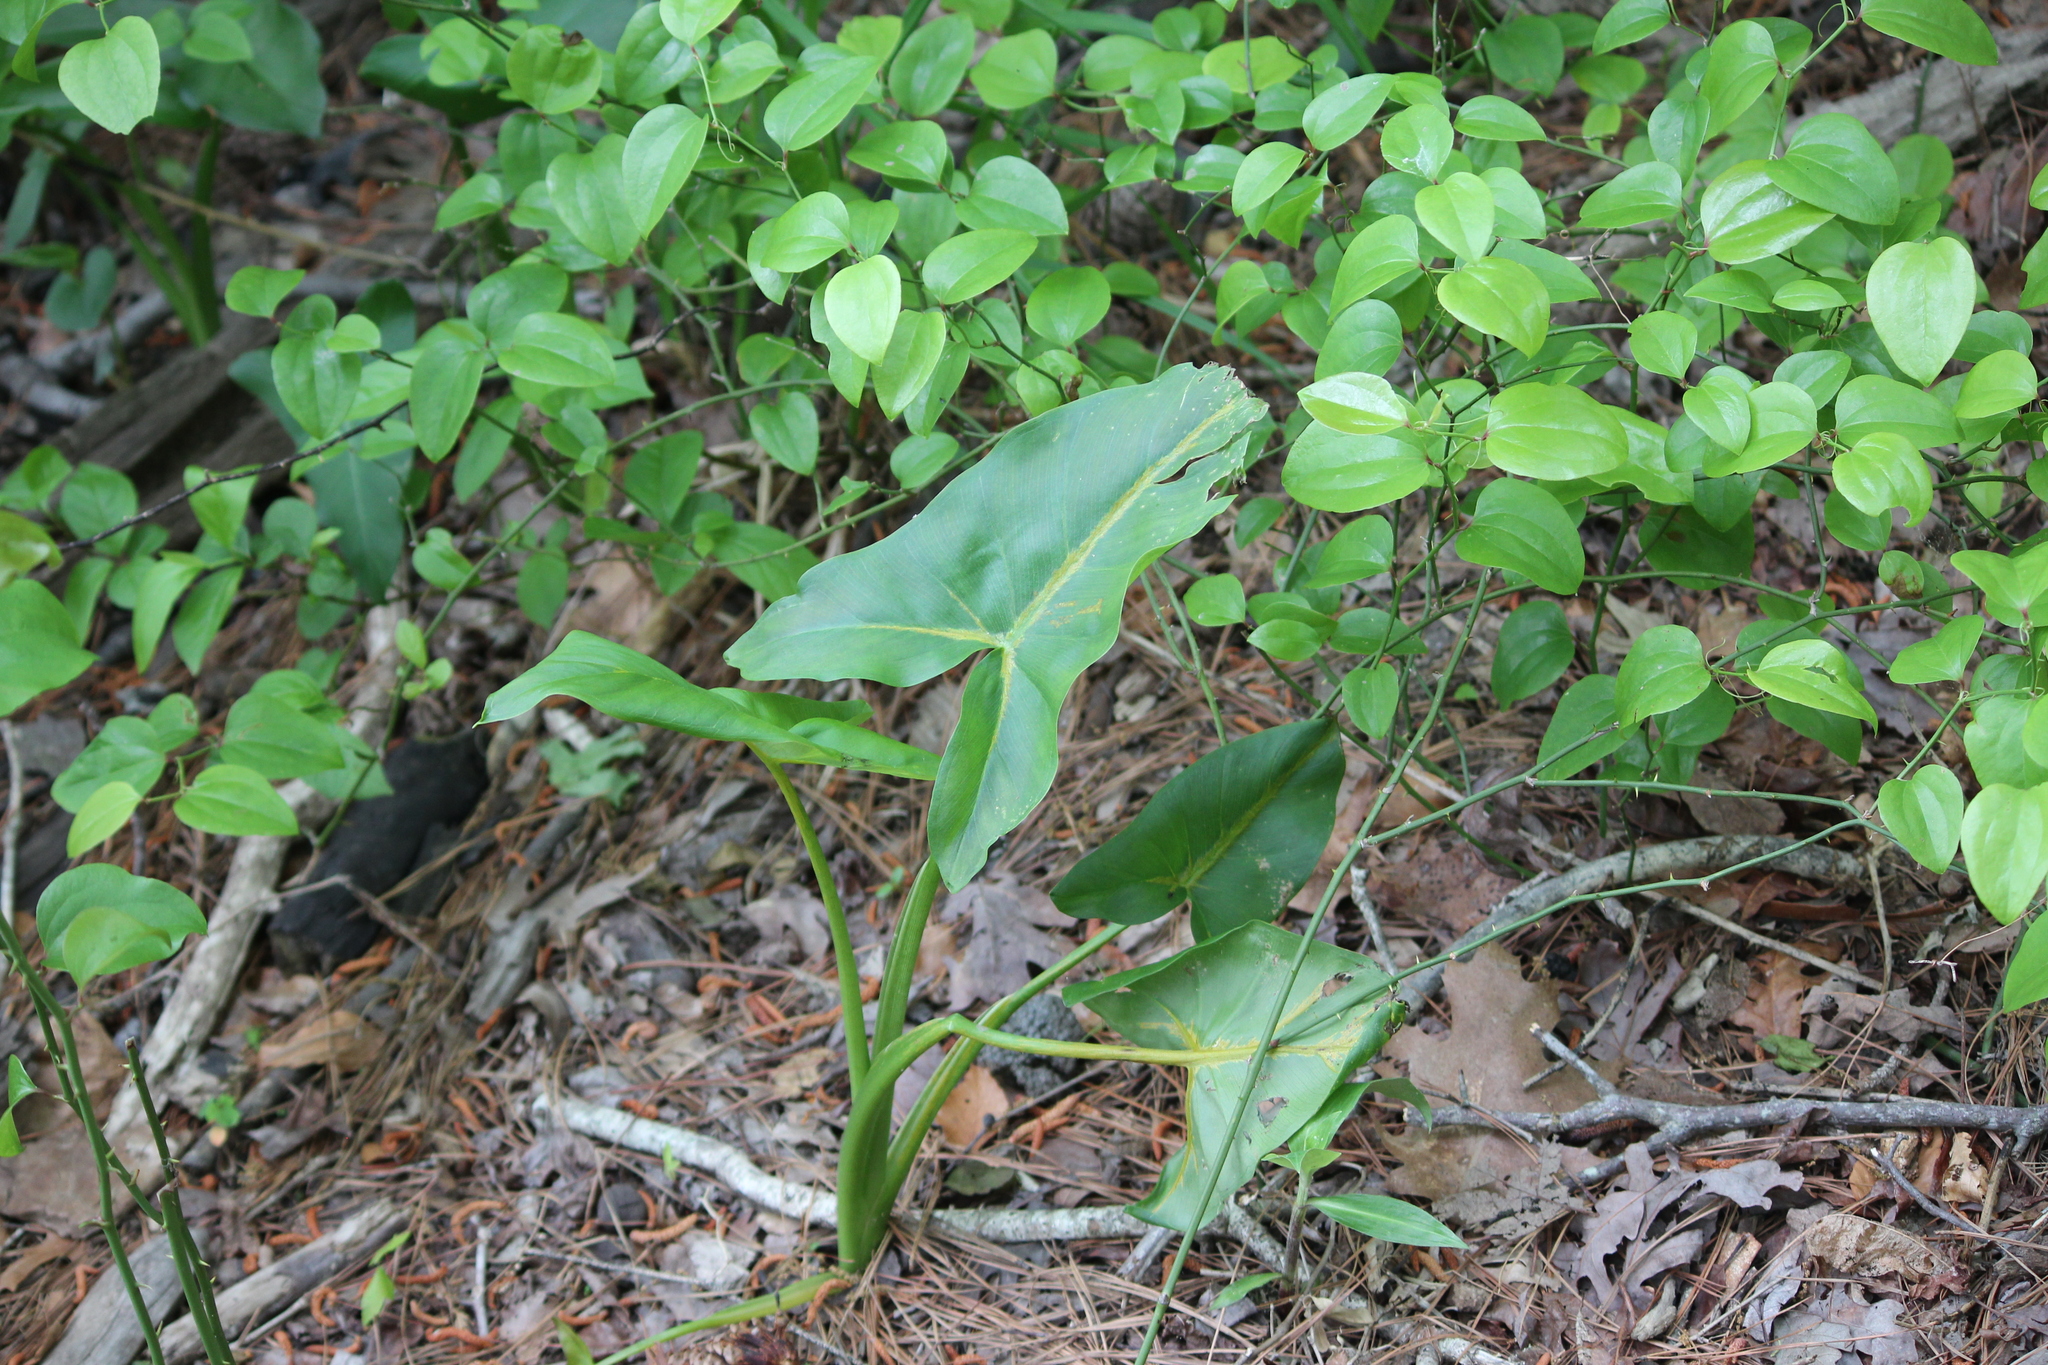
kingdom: Plantae
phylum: Tracheophyta
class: Liliopsida
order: Alismatales
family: Araceae
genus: Peltandra
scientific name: Peltandra virginica
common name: Arrow arum
